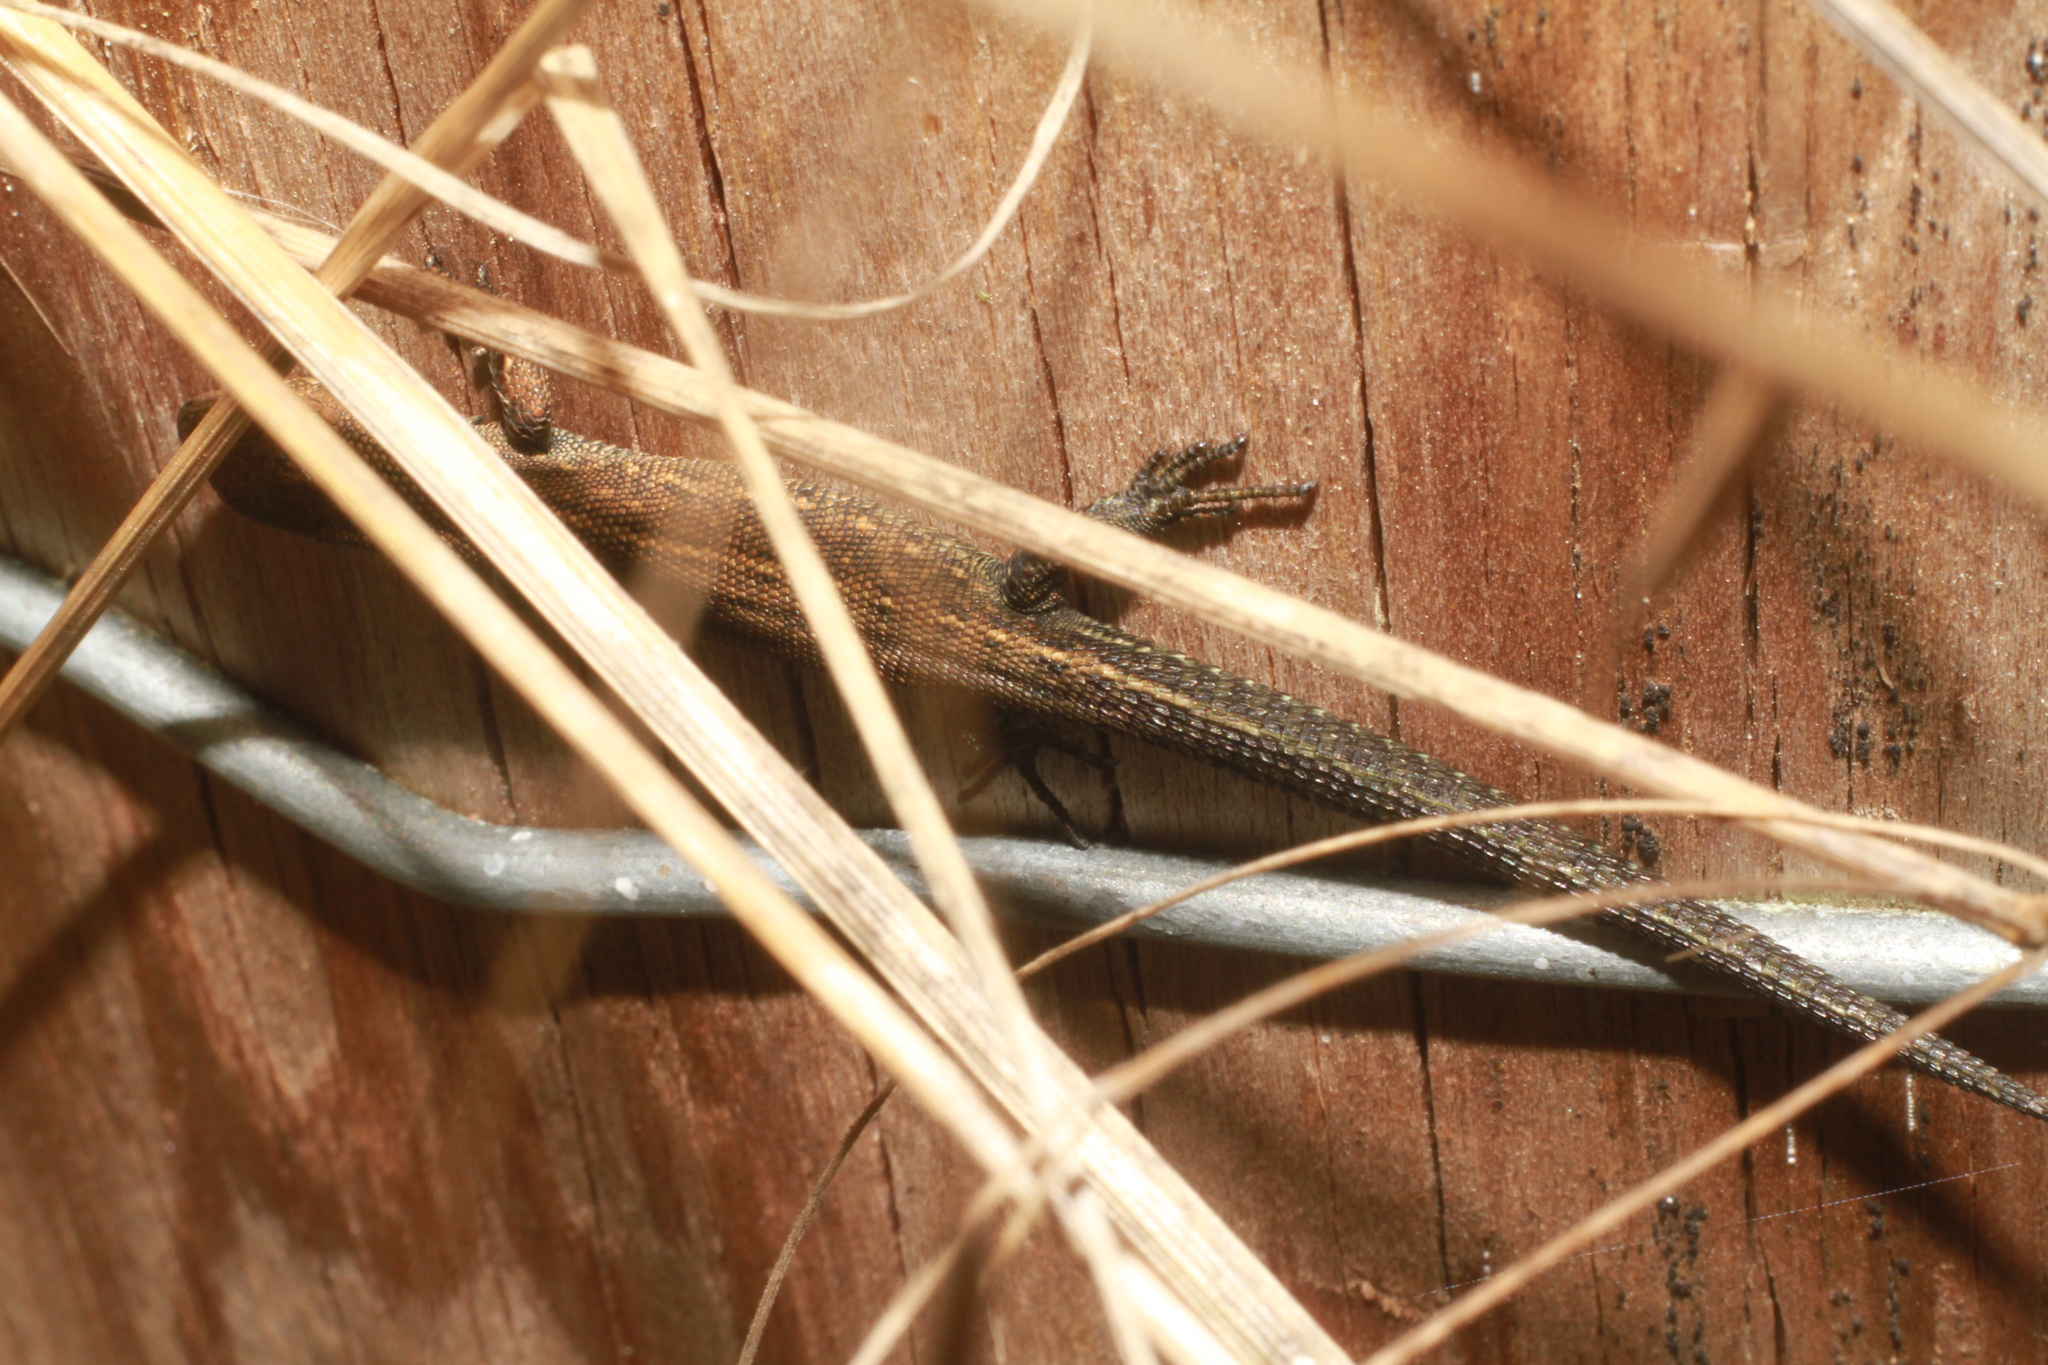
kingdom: Animalia
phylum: Chordata
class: Squamata
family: Lacertidae
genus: Zootoca
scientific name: Zootoca vivipara
